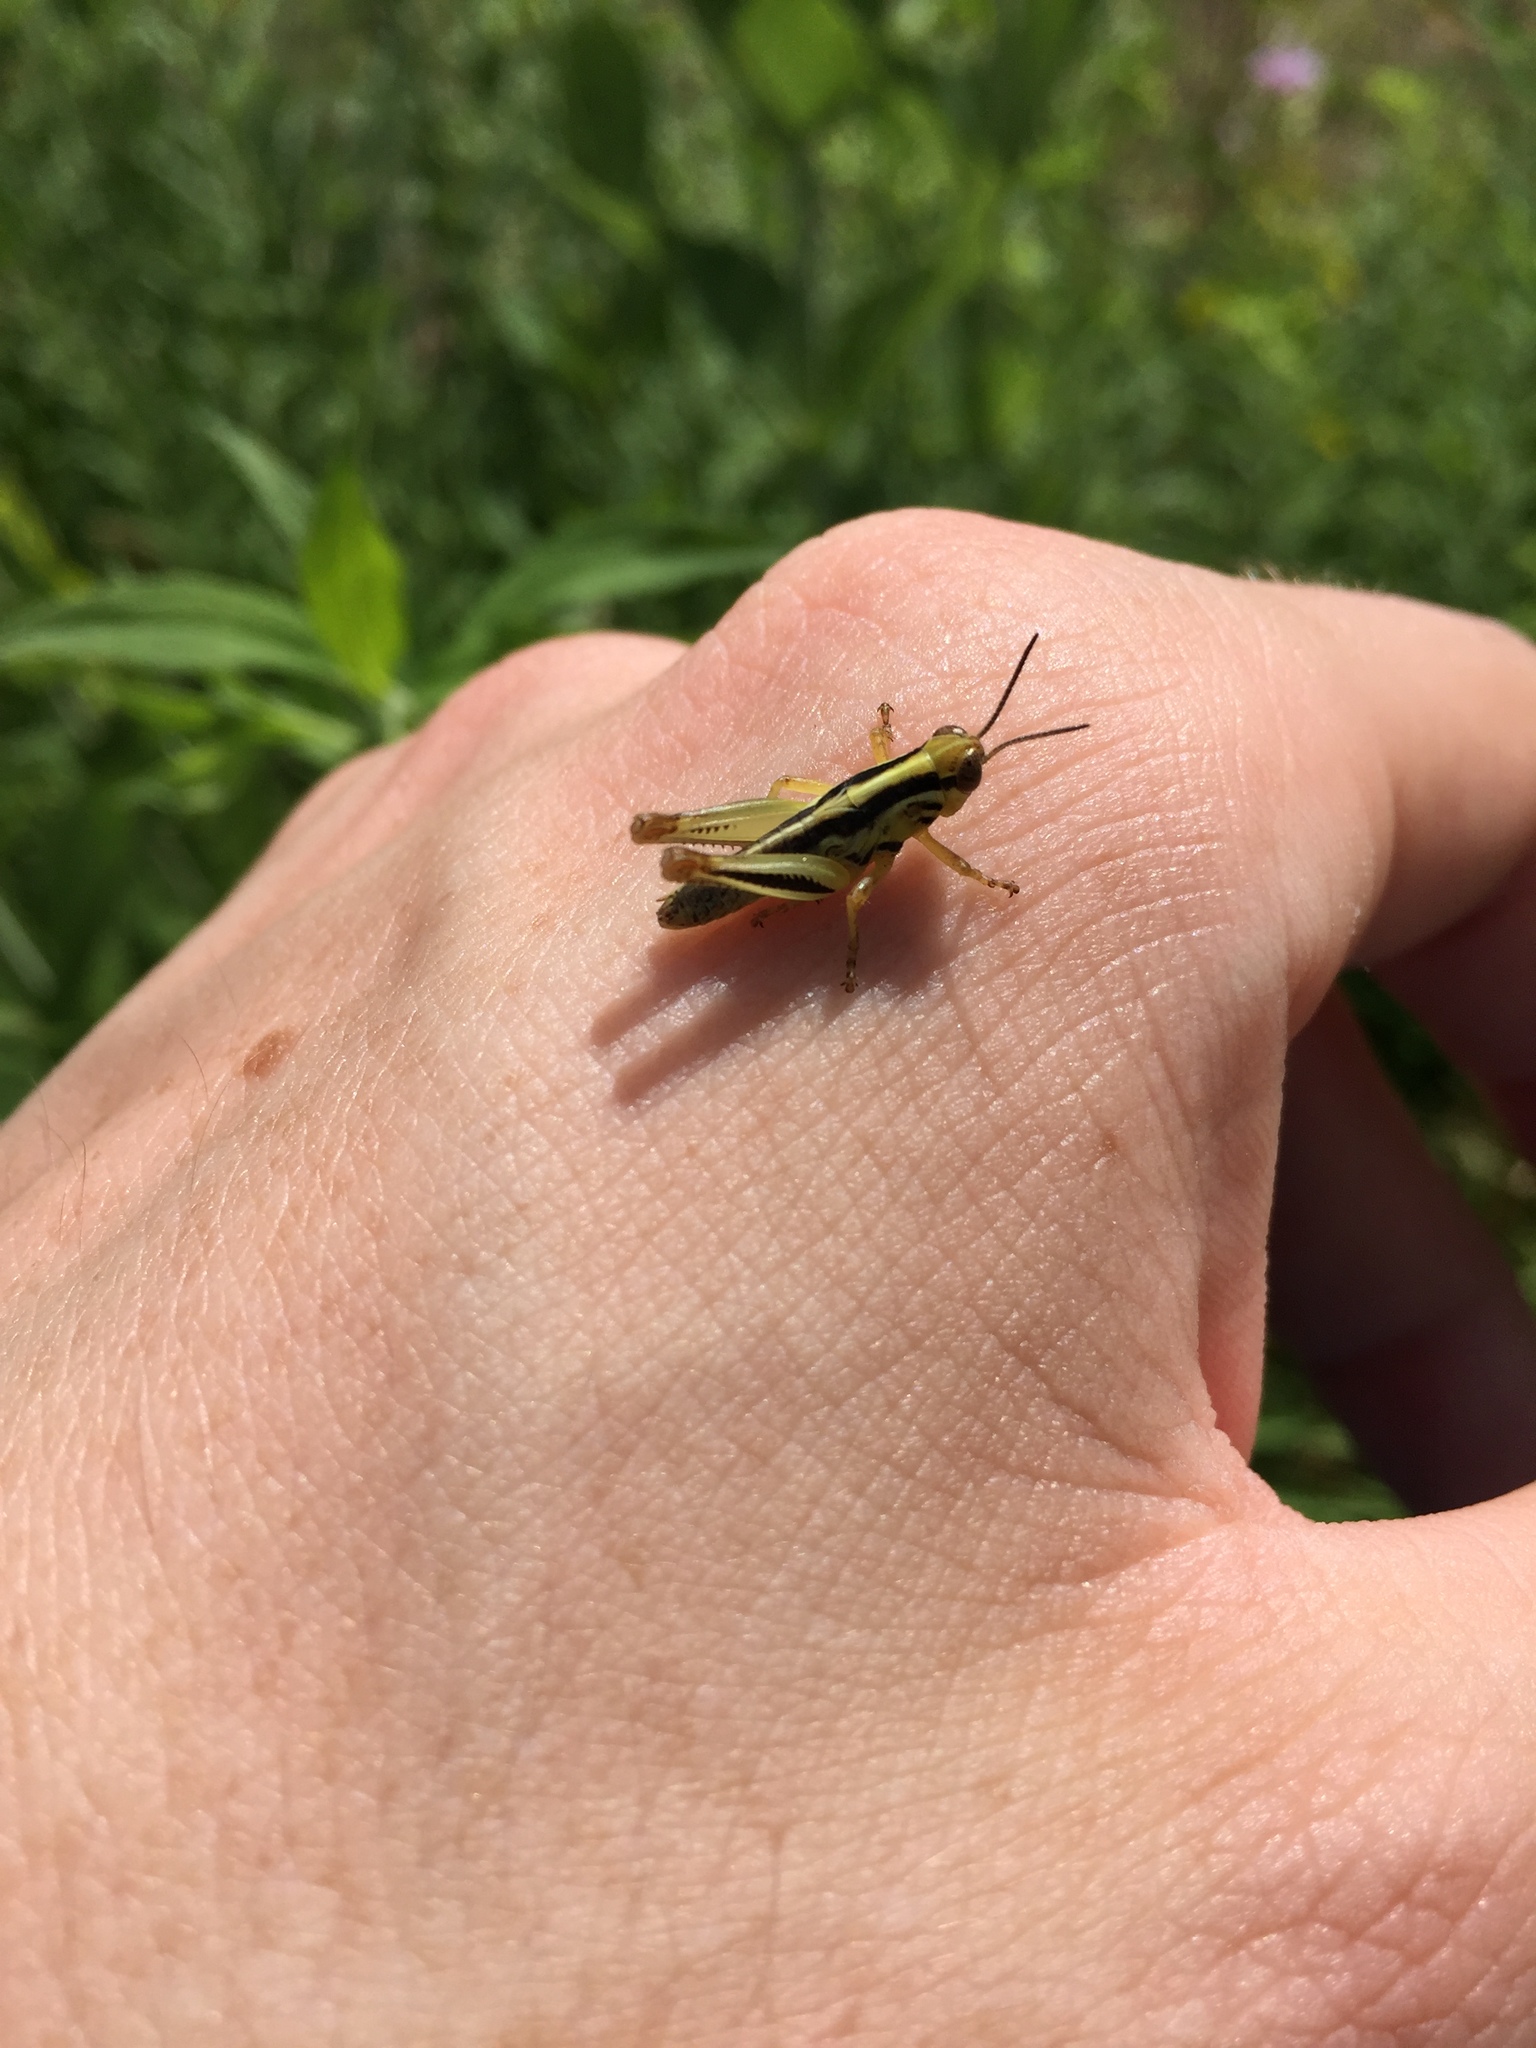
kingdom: Animalia
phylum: Arthropoda
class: Insecta
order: Orthoptera
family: Acrididae
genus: Melanoplus
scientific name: Melanoplus femurrubrum
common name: Red-legged grasshopper
